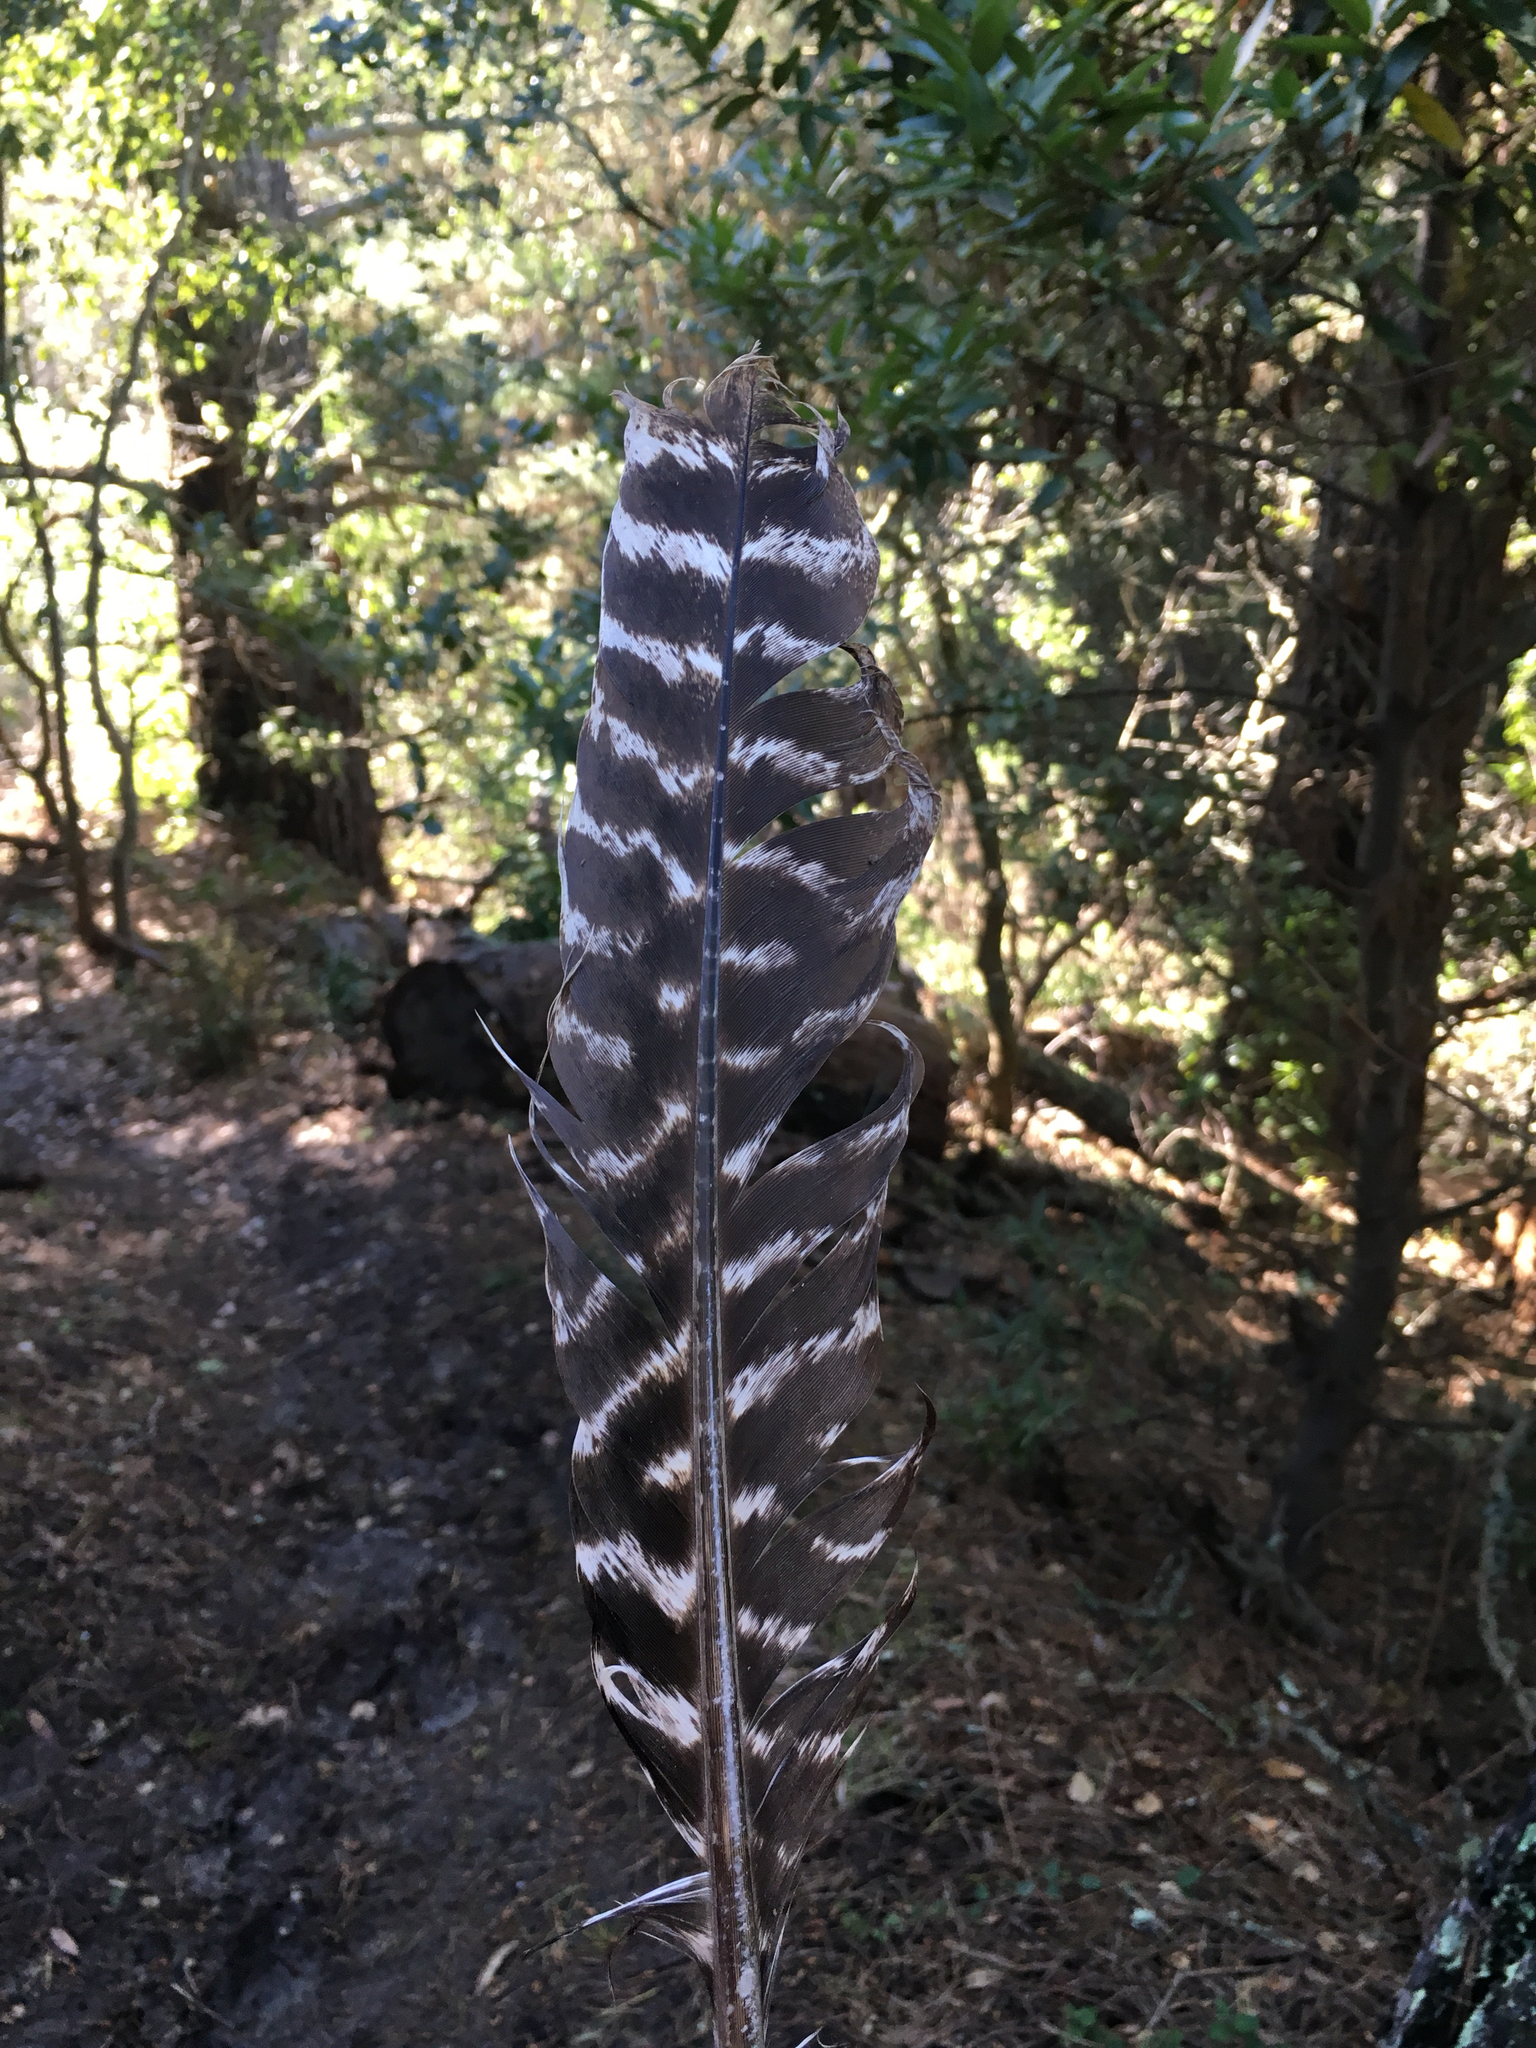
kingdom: Animalia
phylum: Chordata
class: Aves
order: Galliformes
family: Phasianidae
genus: Meleagris
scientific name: Meleagris gallopavo
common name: Wild turkey
